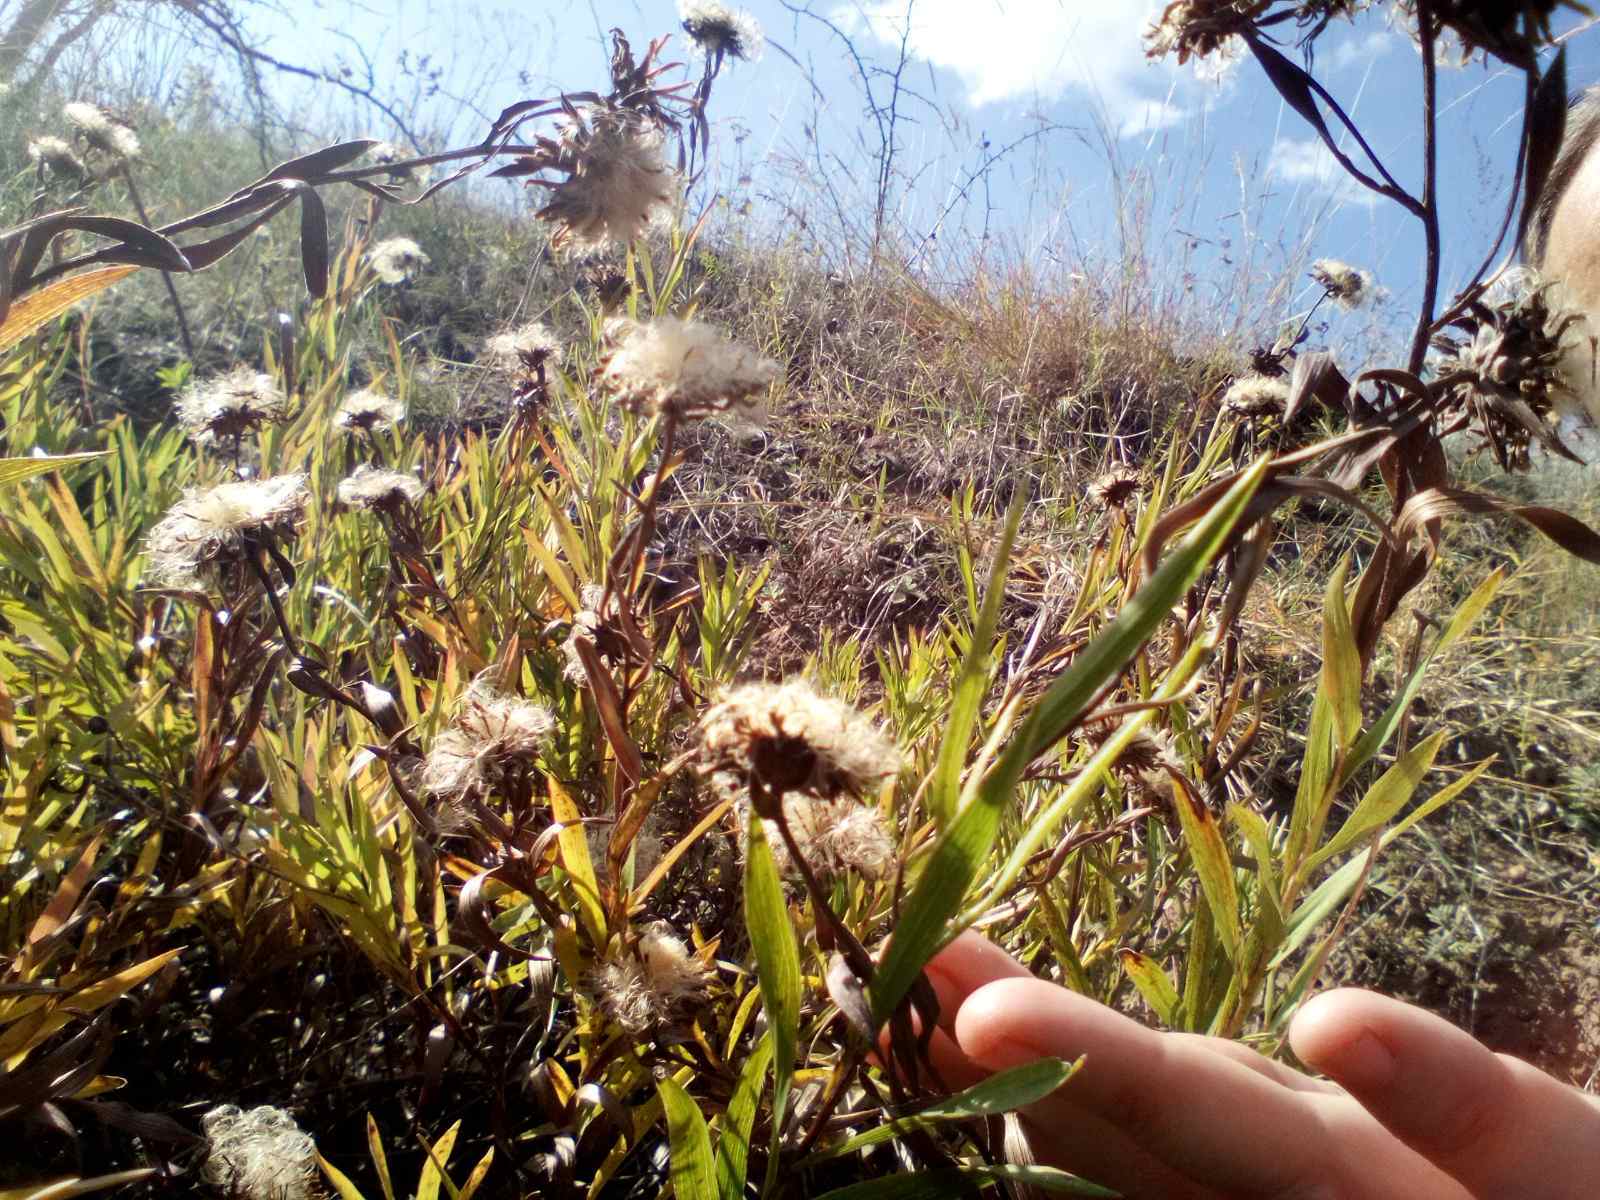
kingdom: Plantae
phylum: Tracheophyta
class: Magnoliopsida
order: Asterales
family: Asteraceae
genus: Pentanema
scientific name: Pentanema ensifolium
